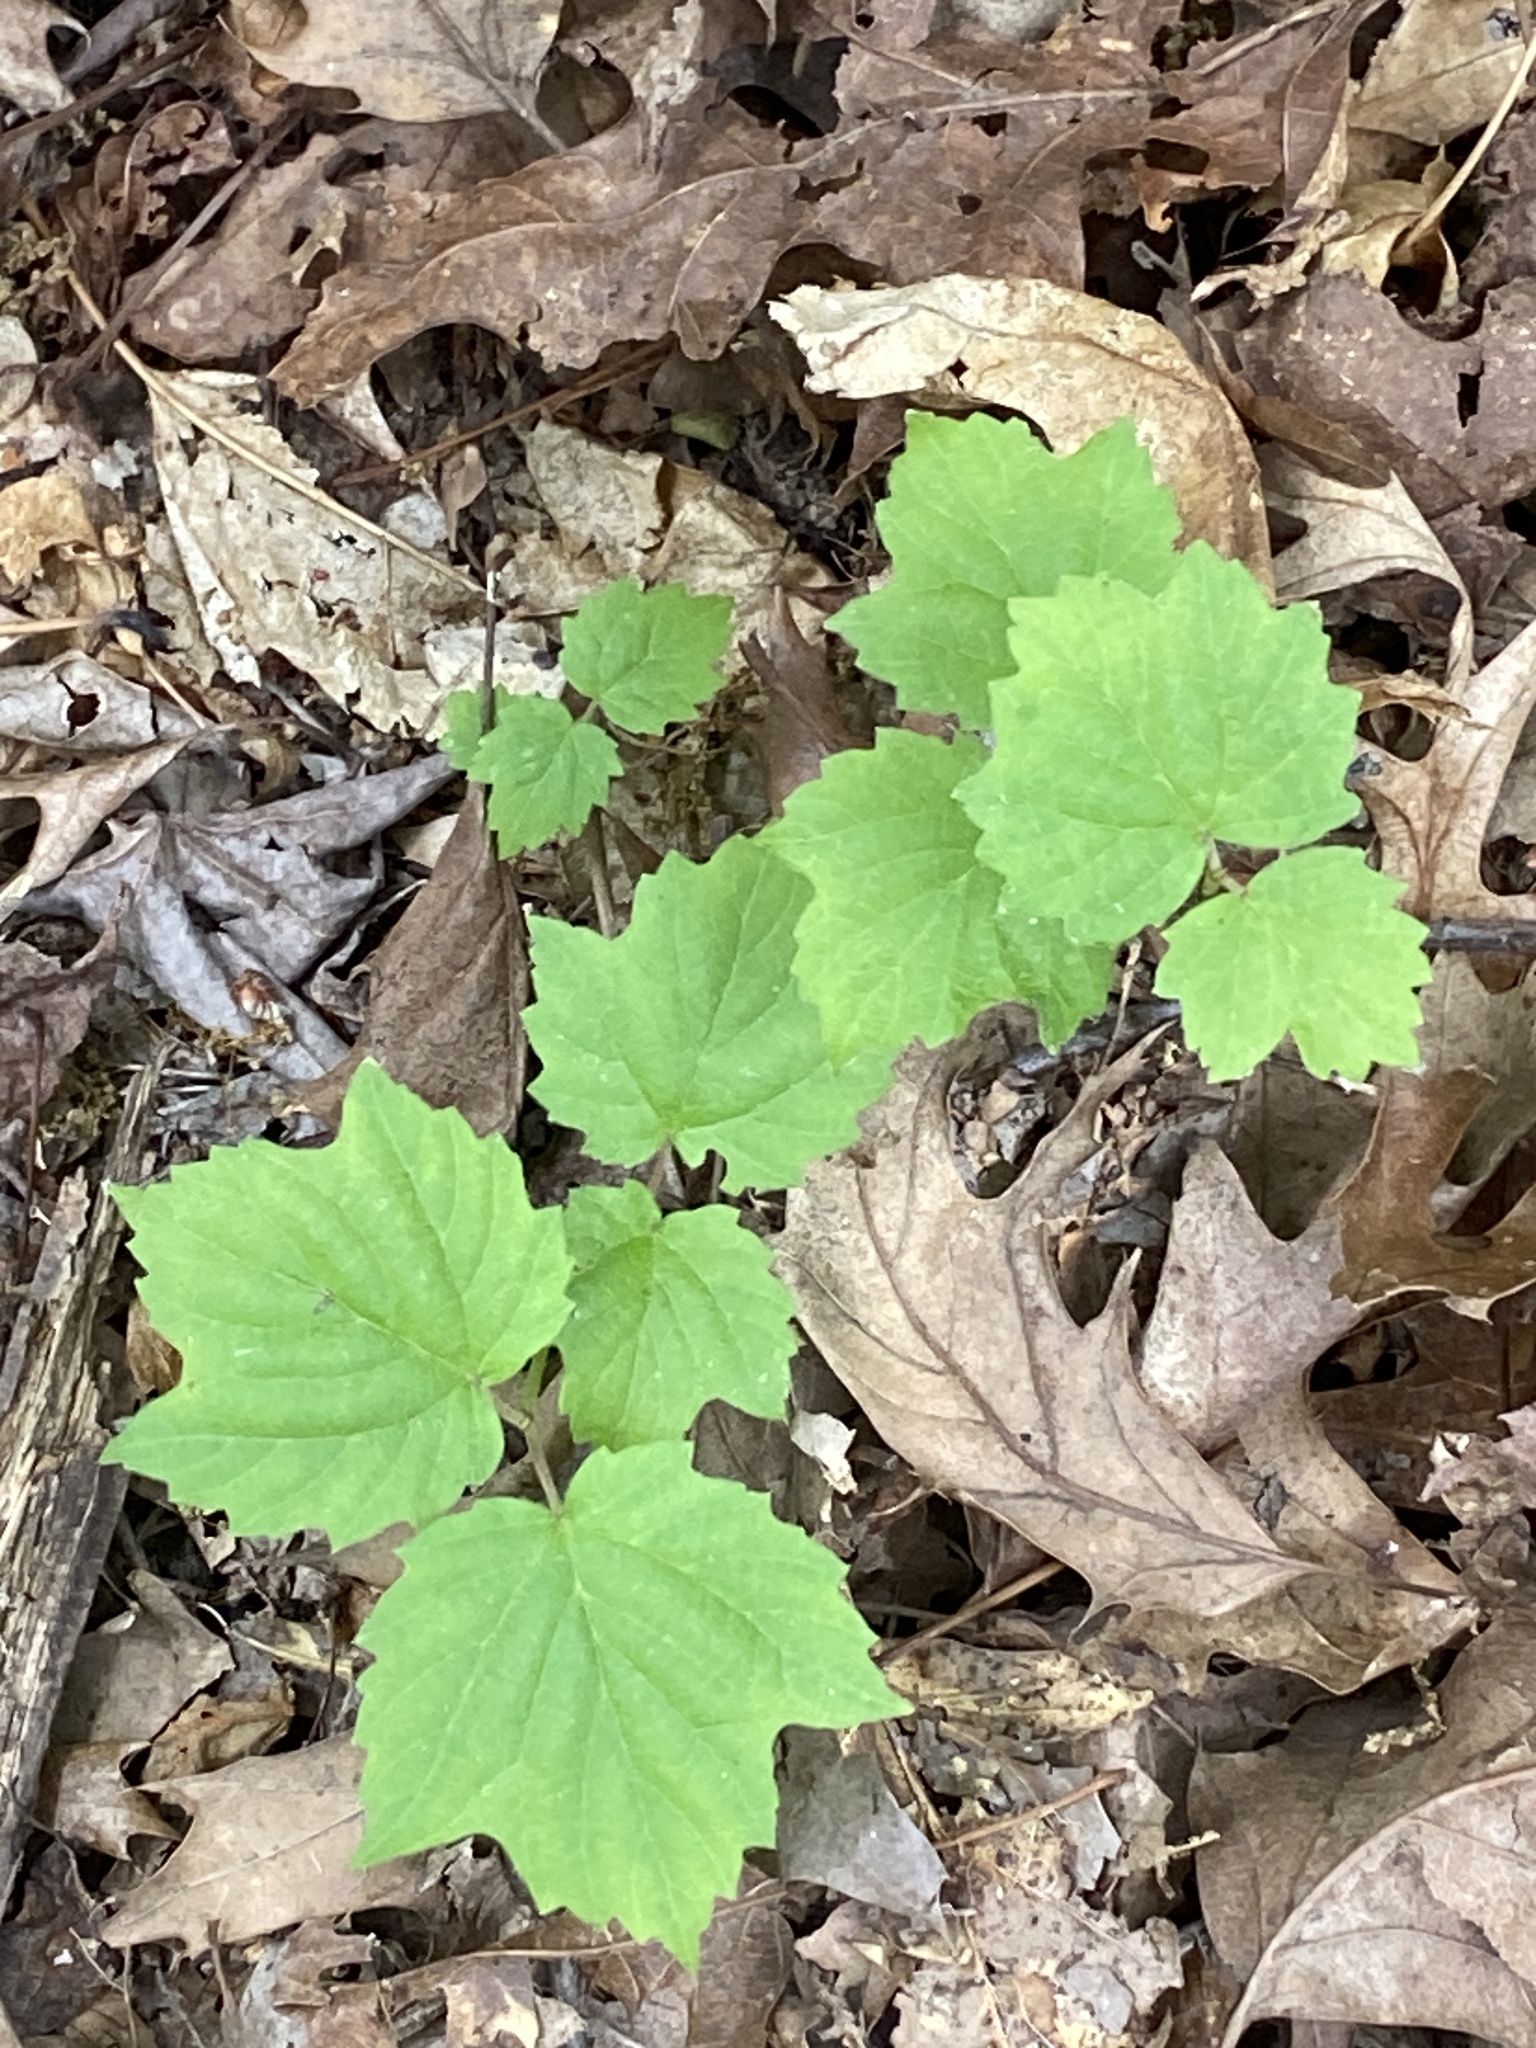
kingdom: Plantae
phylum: Tracheophyta
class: Magnoliopsida
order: Dipsacales
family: Viburnaceae
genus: Viburnum
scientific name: Viburnum acerifolium
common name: Dockmackie
